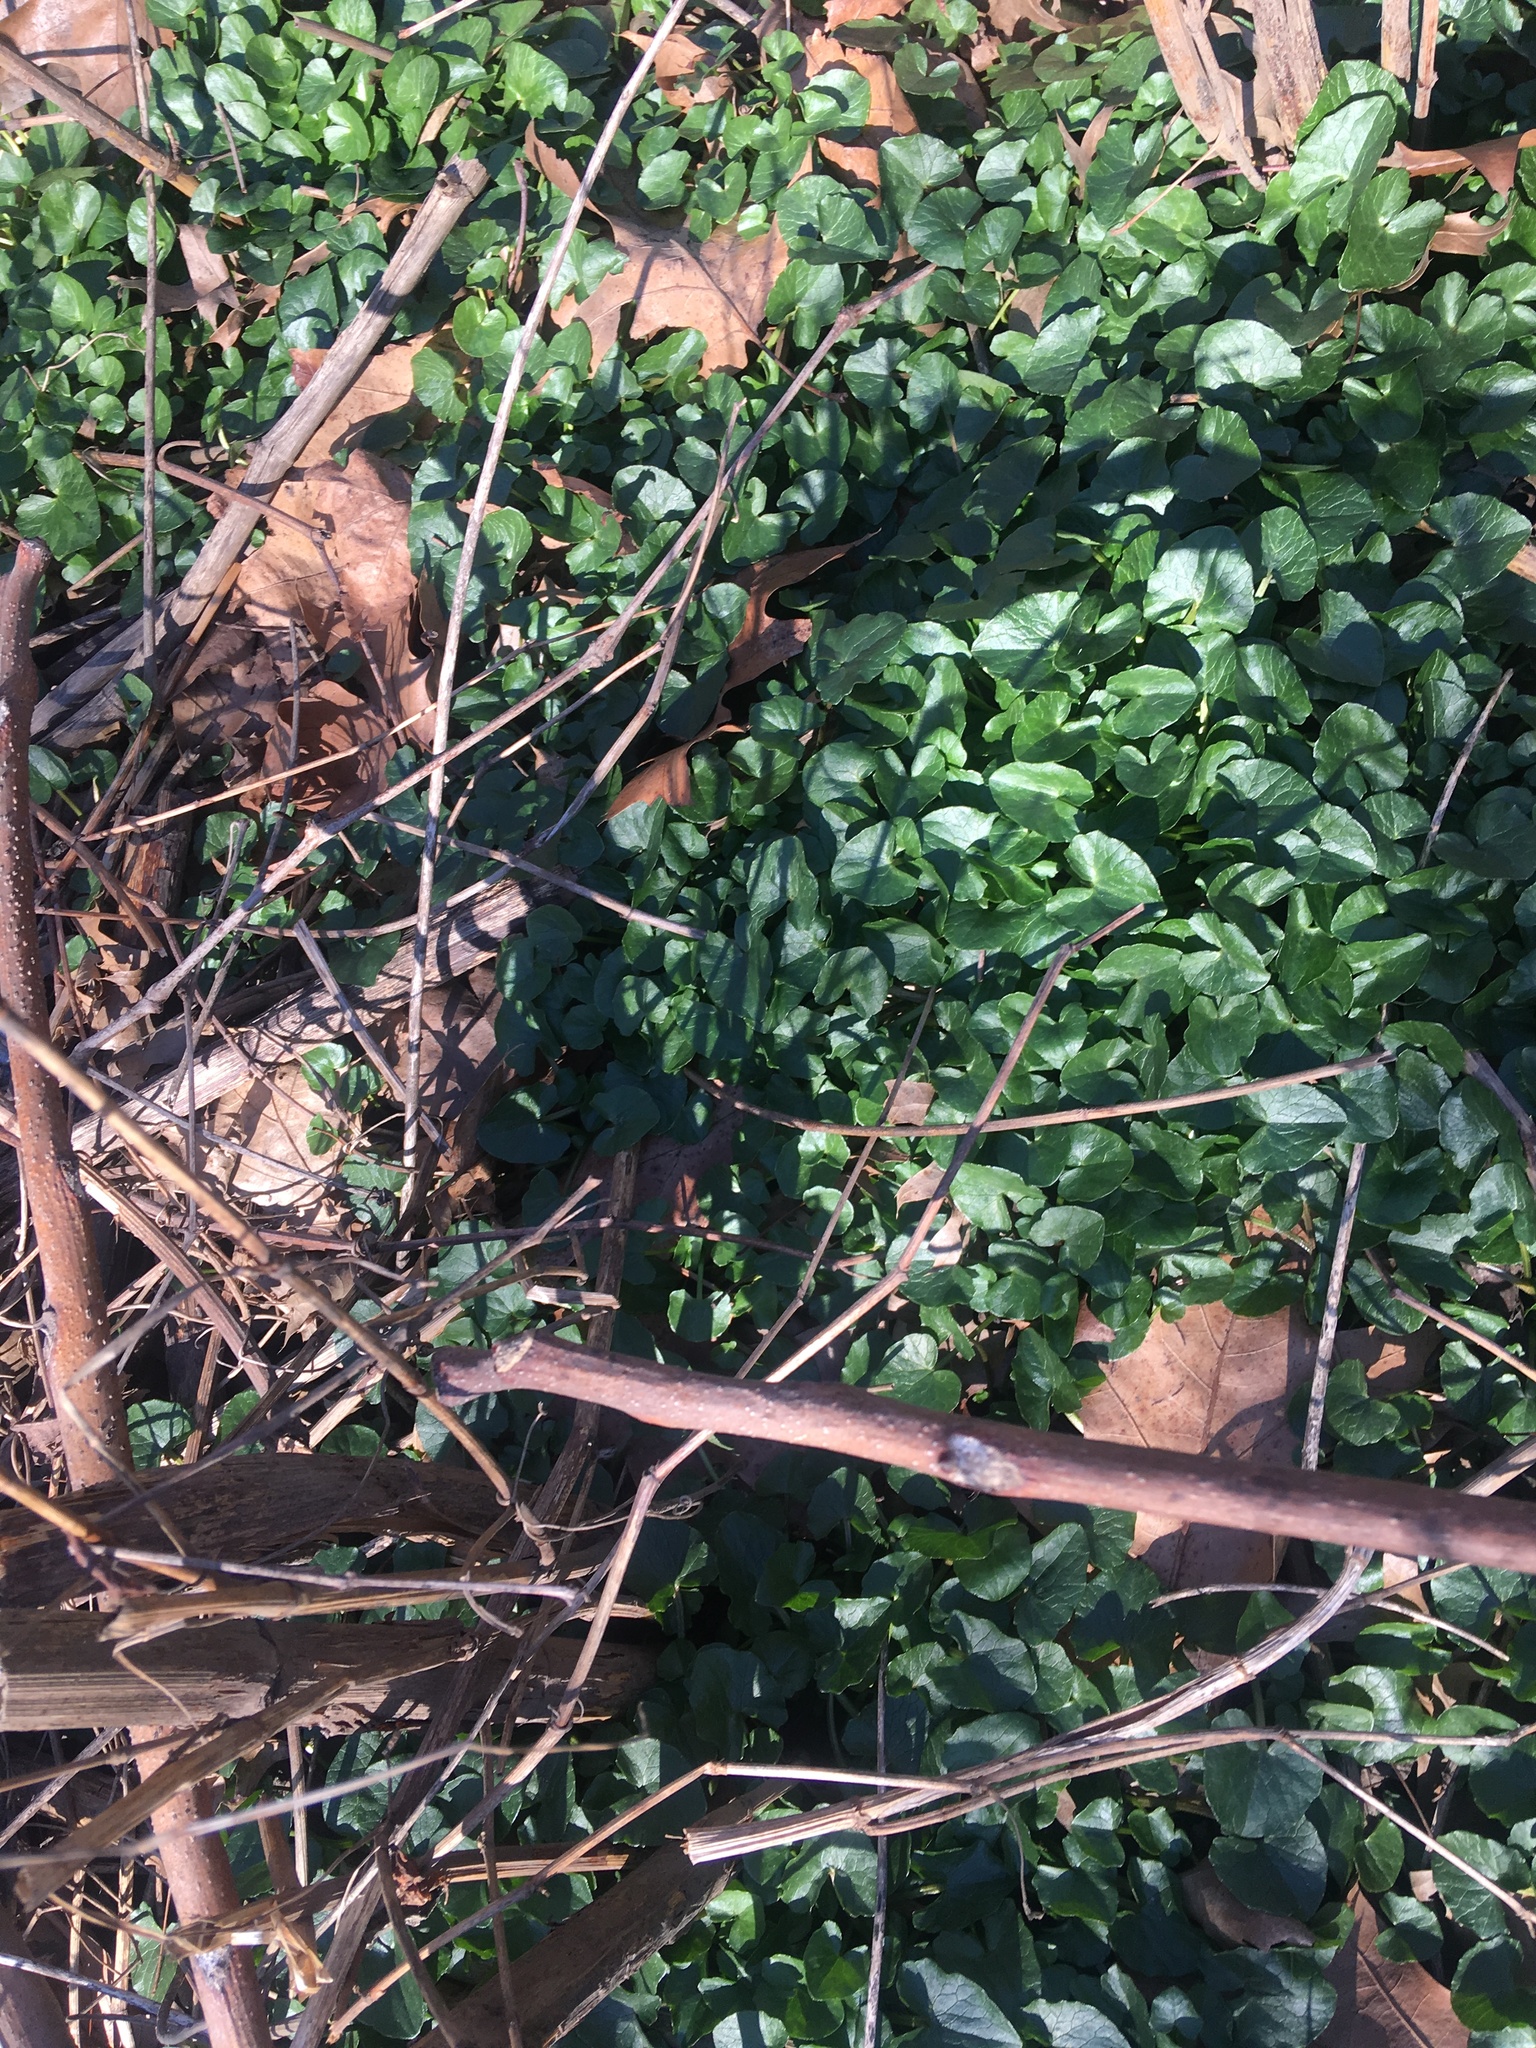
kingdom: Plantae
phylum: Tracheophyta
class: Magnoliopsida
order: Ranunculales
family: Ranunculaceae
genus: Ficaria
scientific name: Ficaria verna
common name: Lesser celandine
